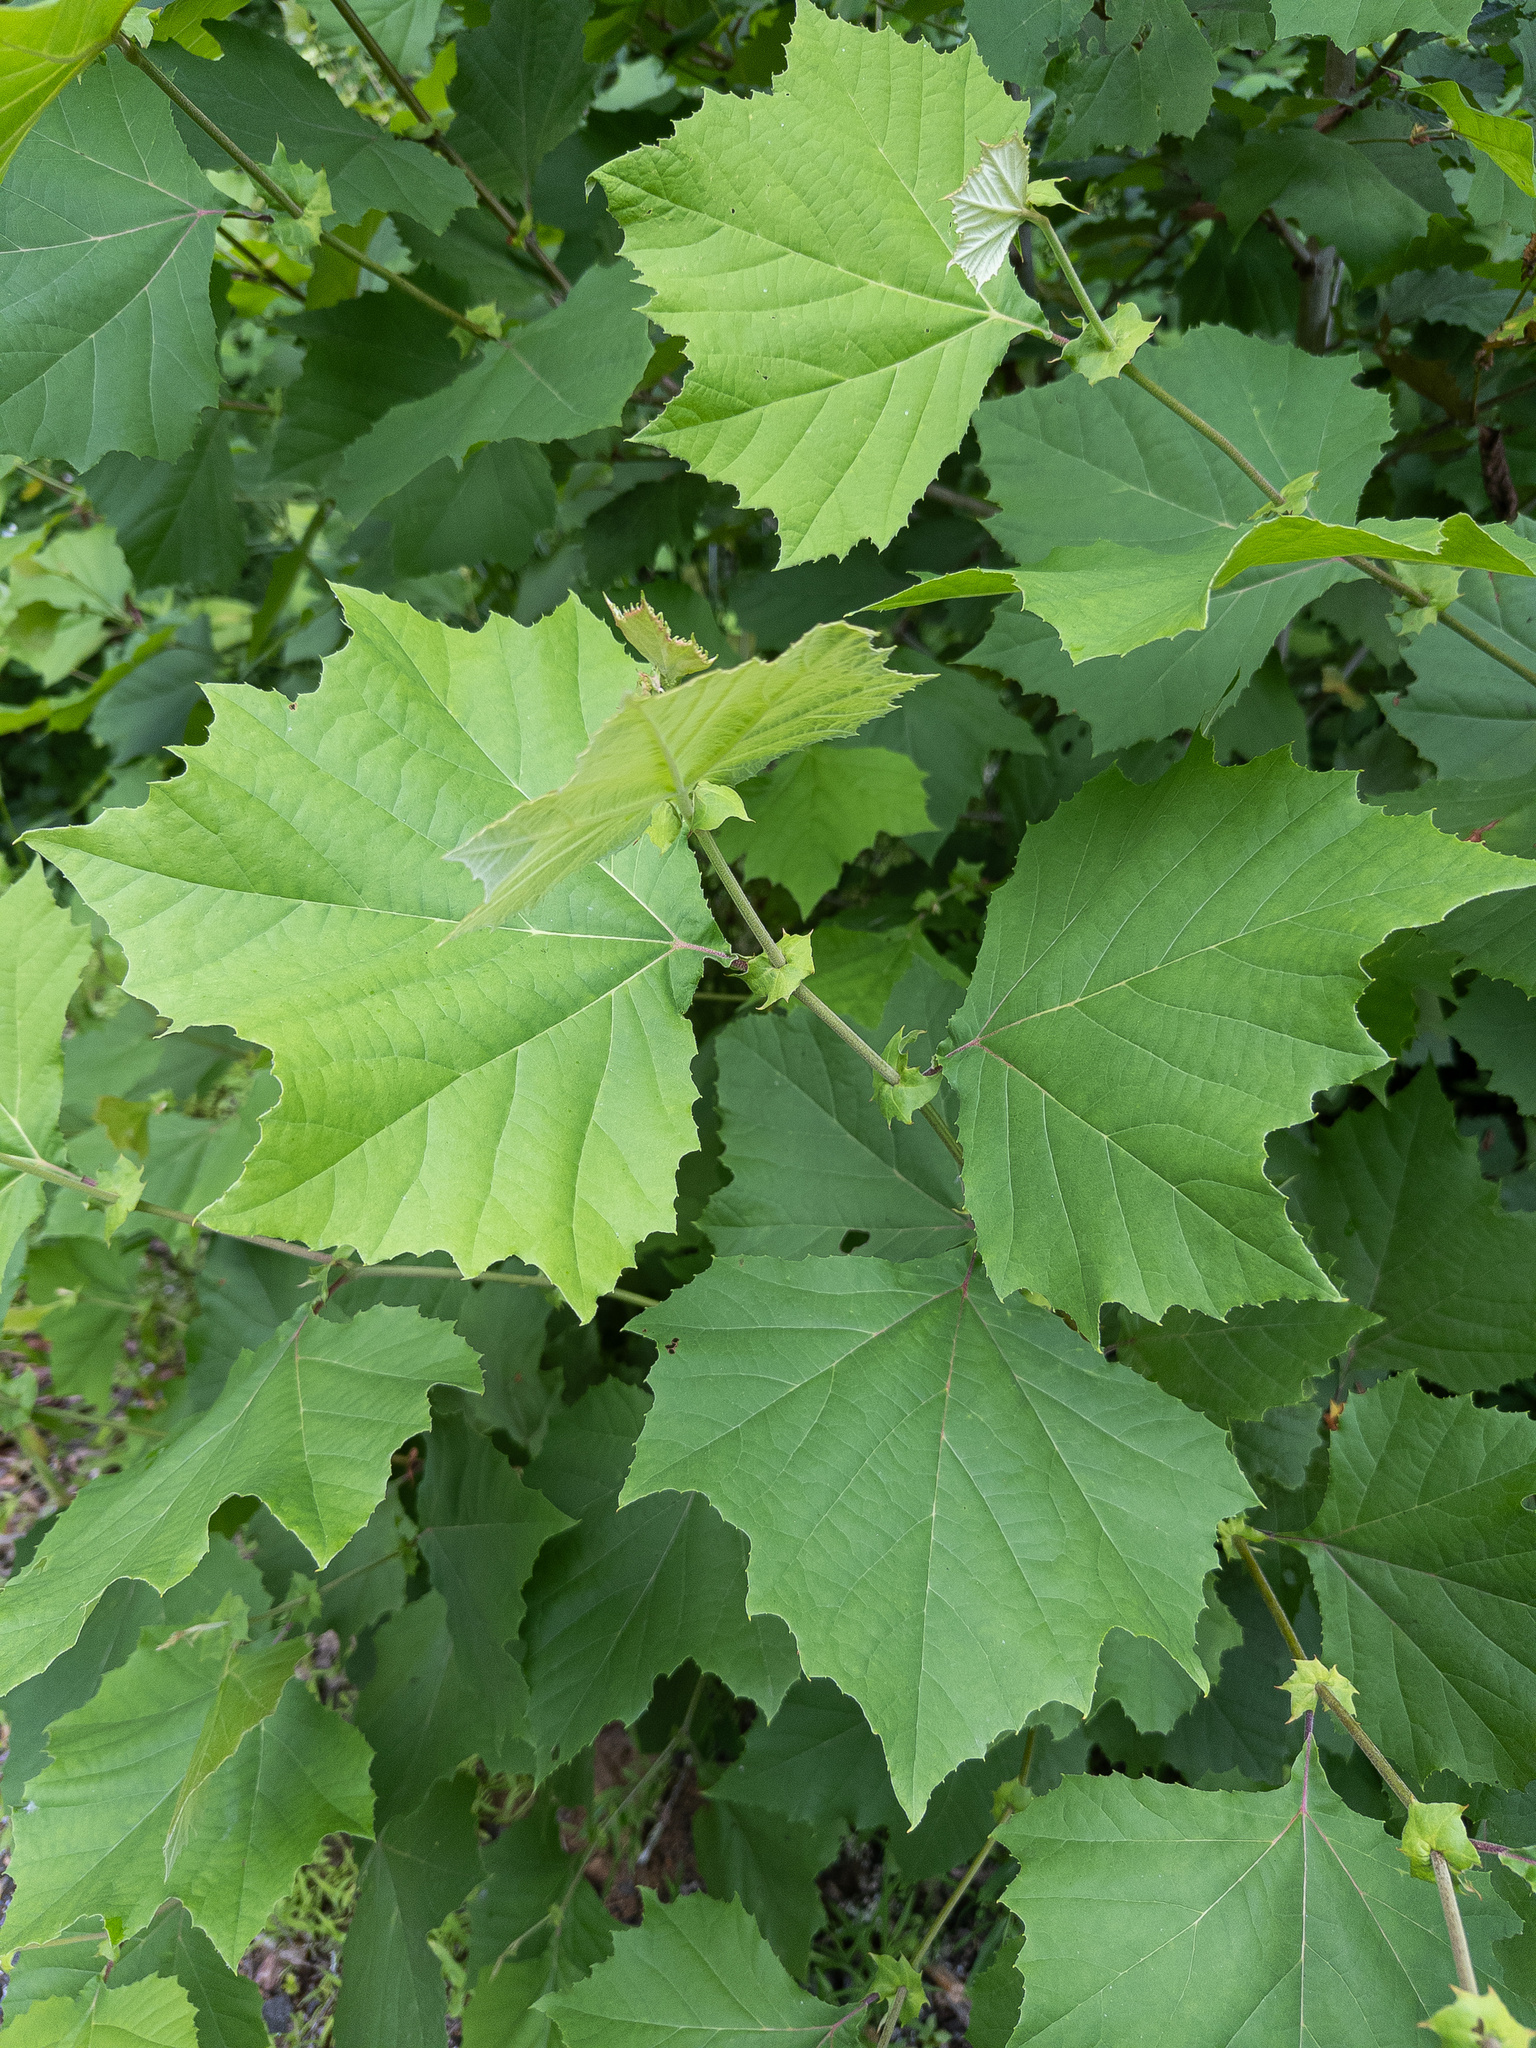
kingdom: Plantae
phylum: Tracheophyta
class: Magnoliopsida
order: Proteales
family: Platanaceae
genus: Platanus
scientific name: Platanus occidentalis
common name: American sycamore
